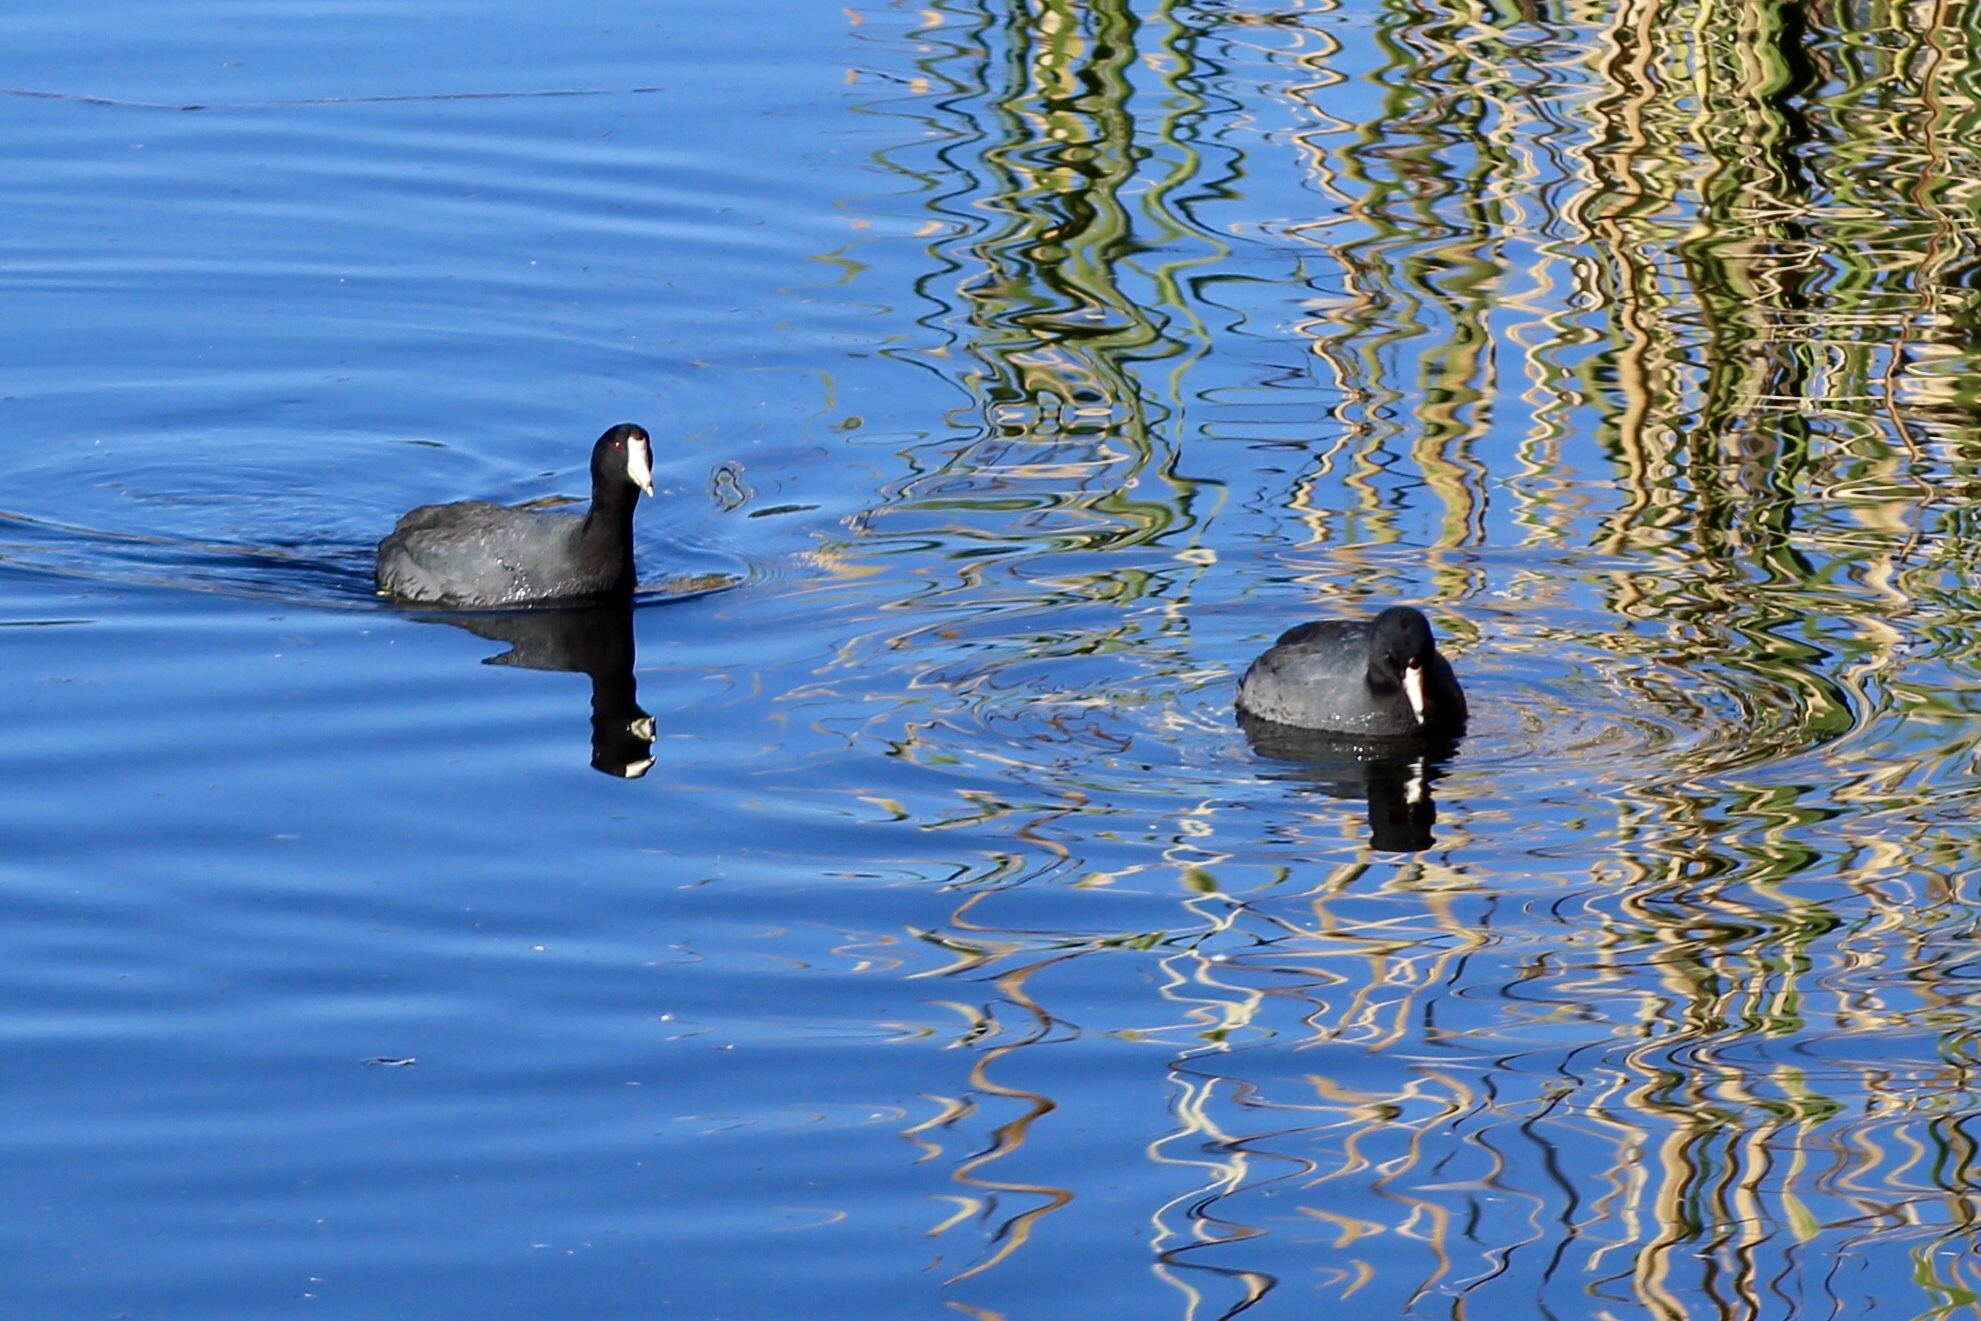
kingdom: Animalia
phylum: Chordata
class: Aves
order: Gruiformes
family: Rallidae
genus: Fulica
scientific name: Fulica americana
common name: American coot
